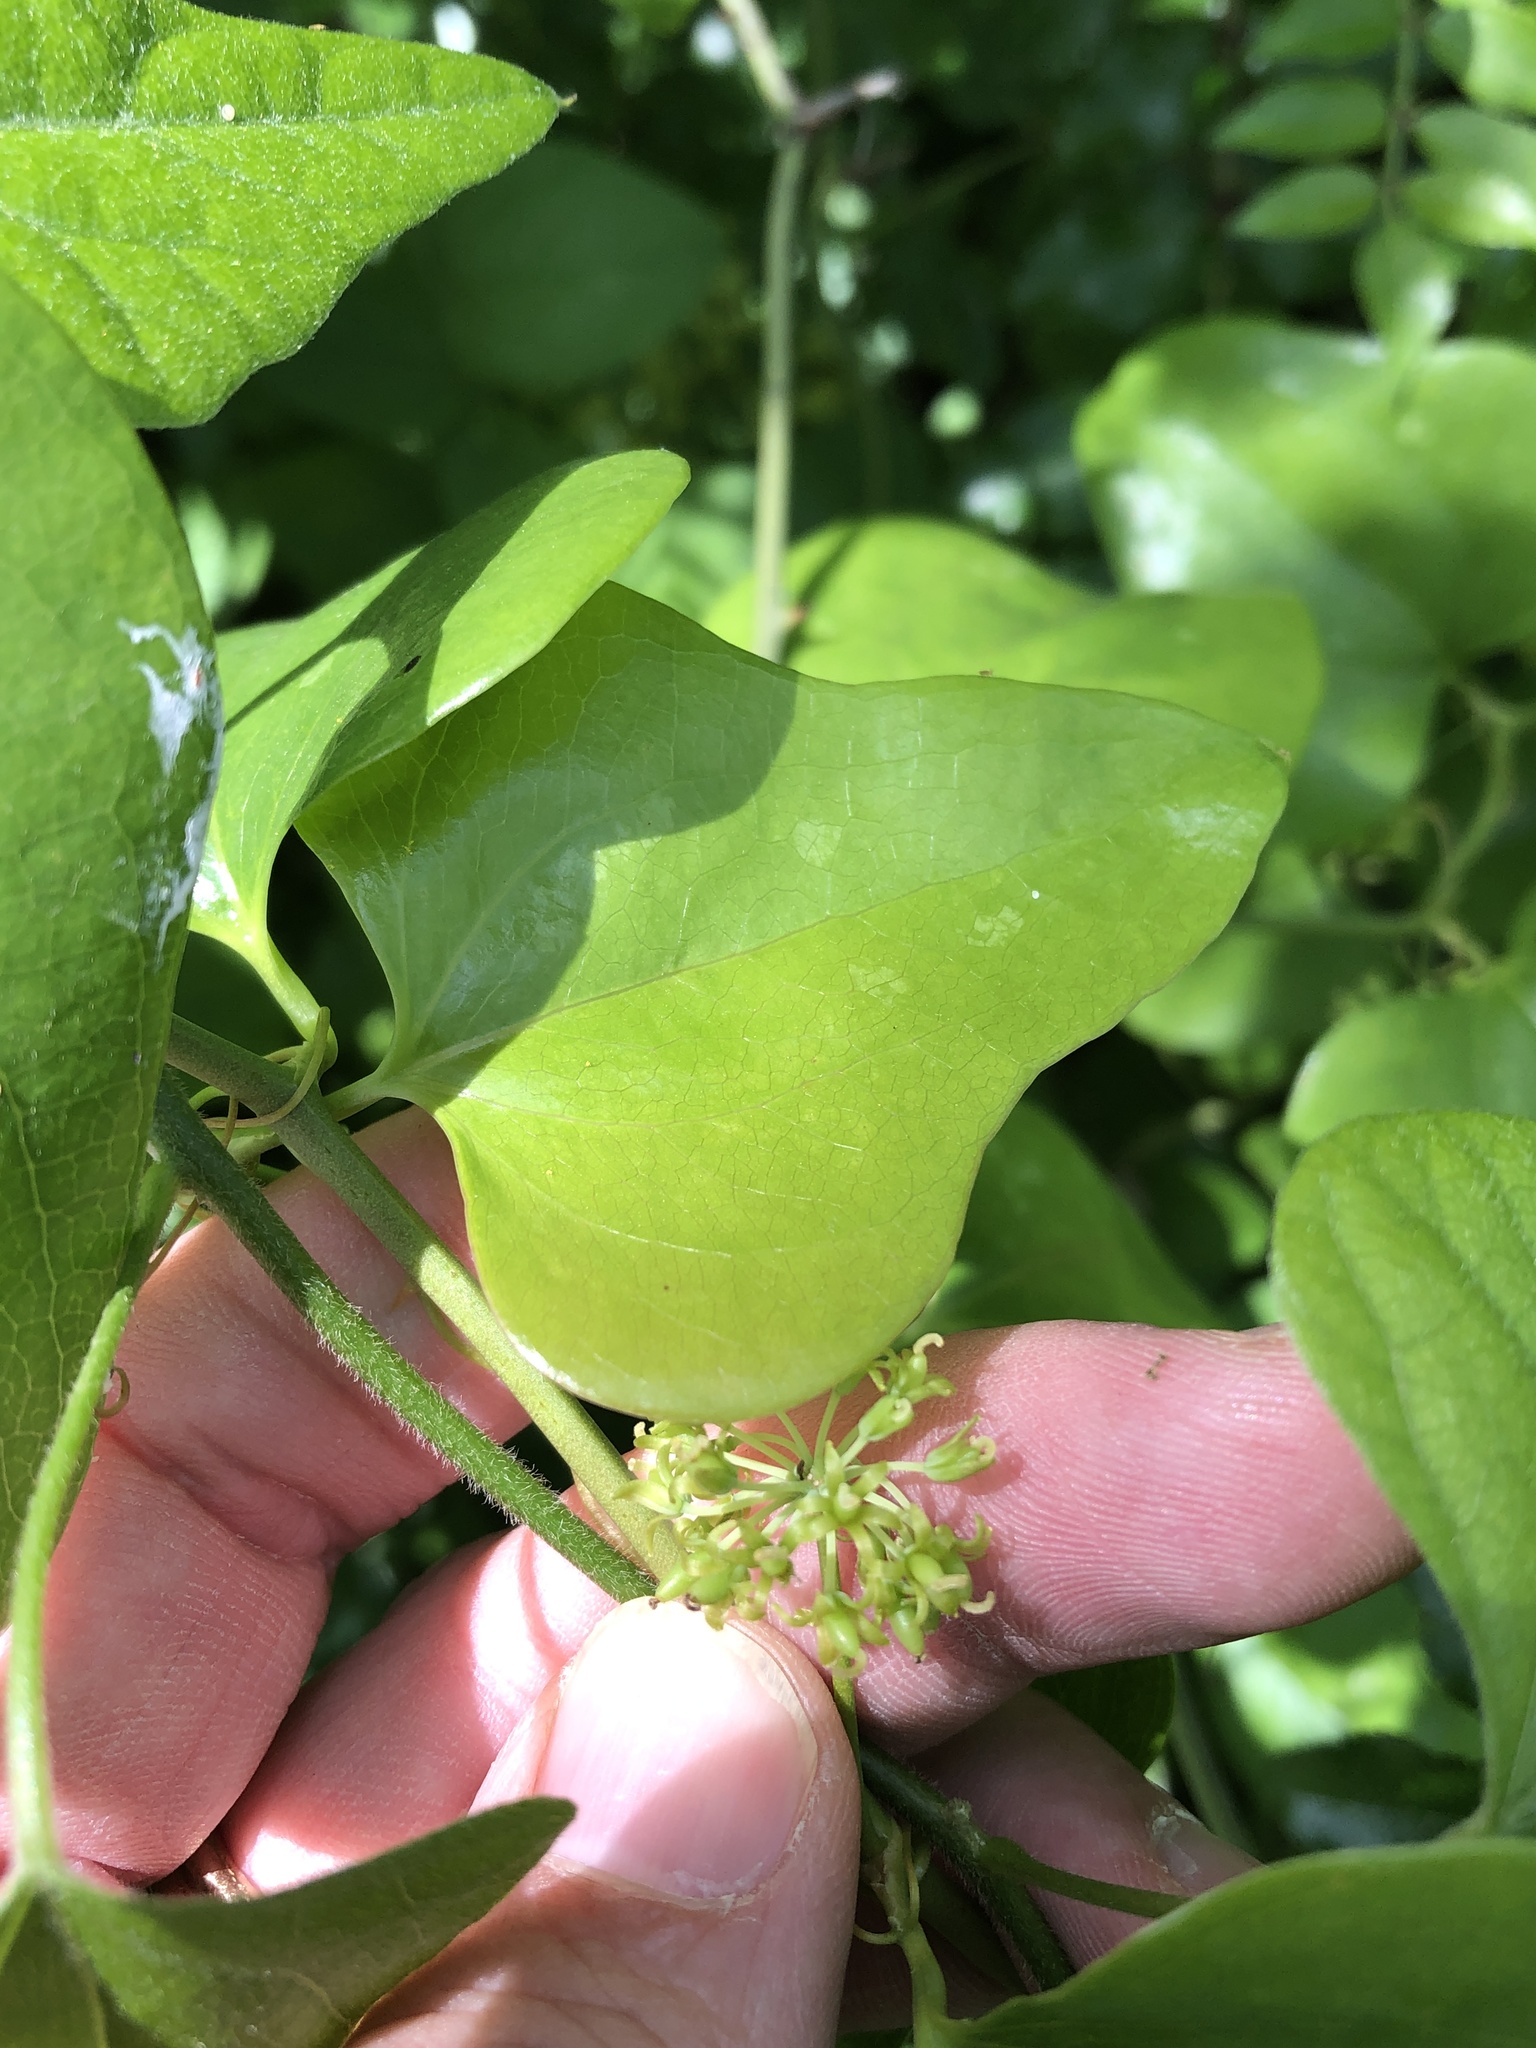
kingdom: Plantae
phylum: Tracheophyta
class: Liliopsida
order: Liliales
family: Smilacaceae
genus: Smilax
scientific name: Smilax bona-nox
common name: Catbrier
